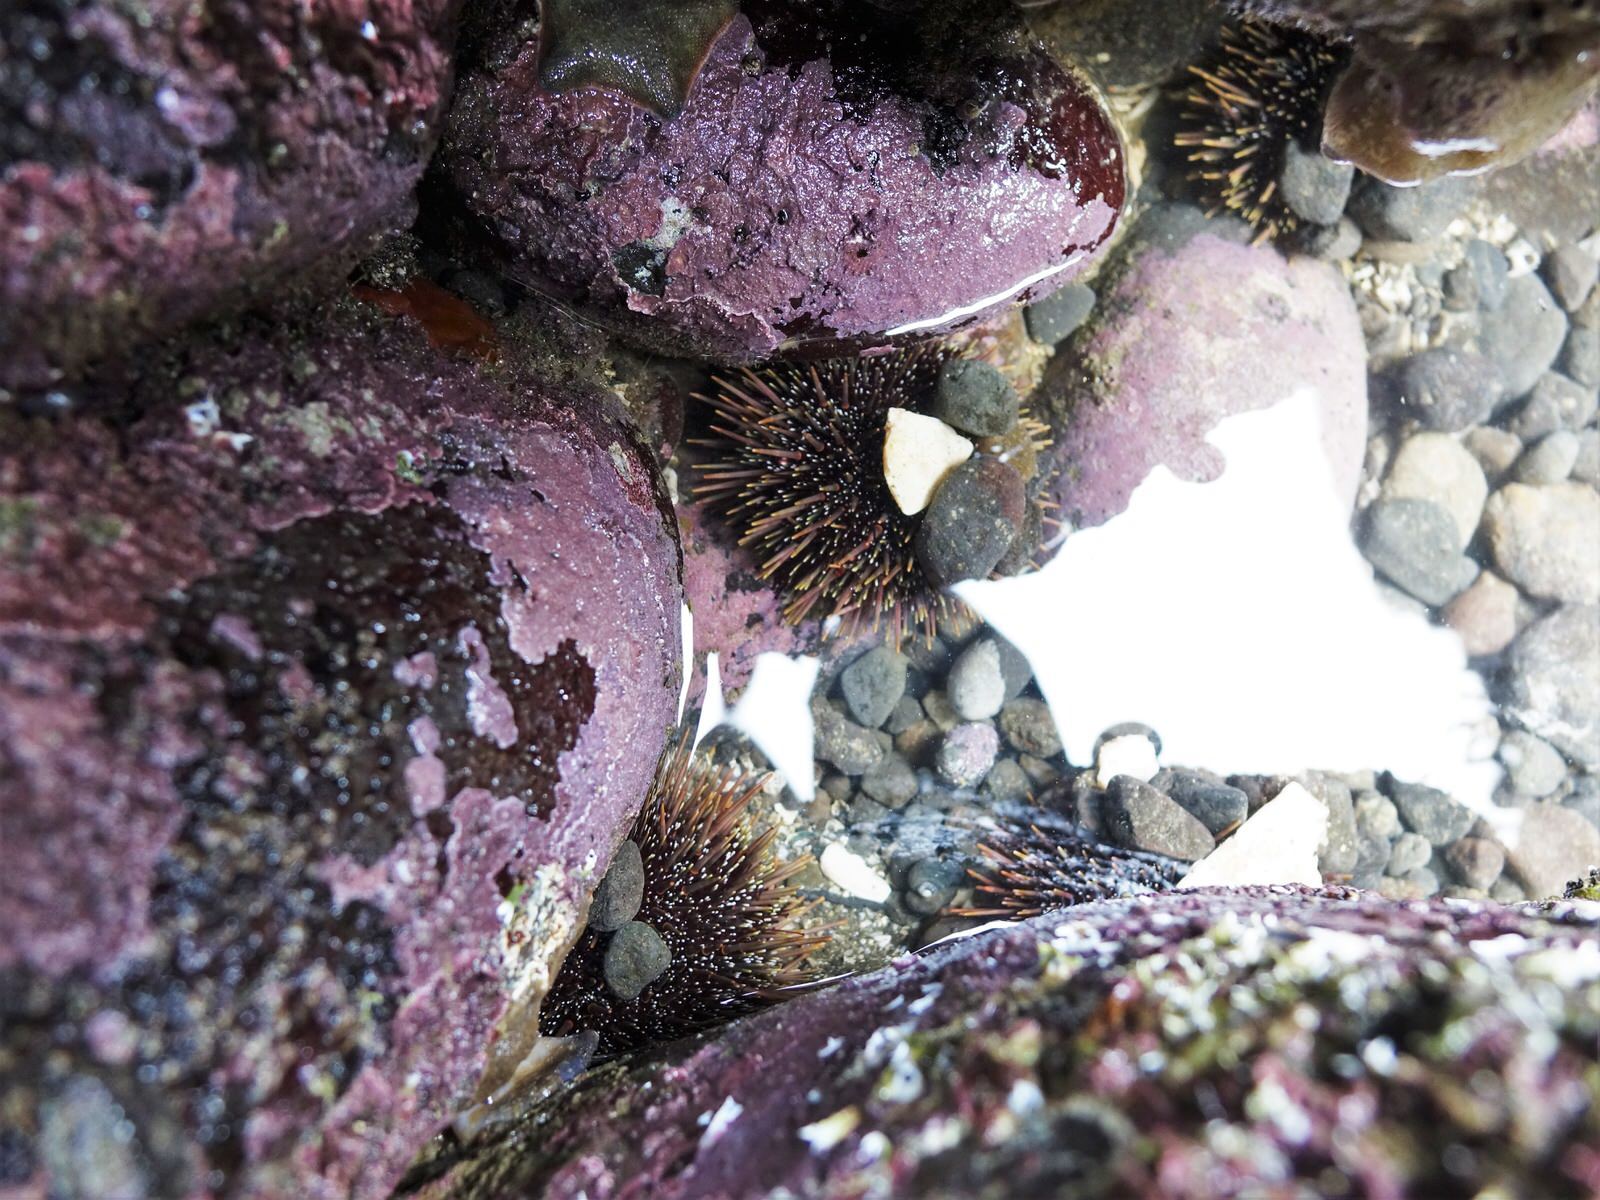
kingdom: Animalia
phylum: Echinodermata
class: Echinoidea
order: Camarodonta
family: Echinometridae
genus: Evechinus
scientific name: Evechinus chloroticus
